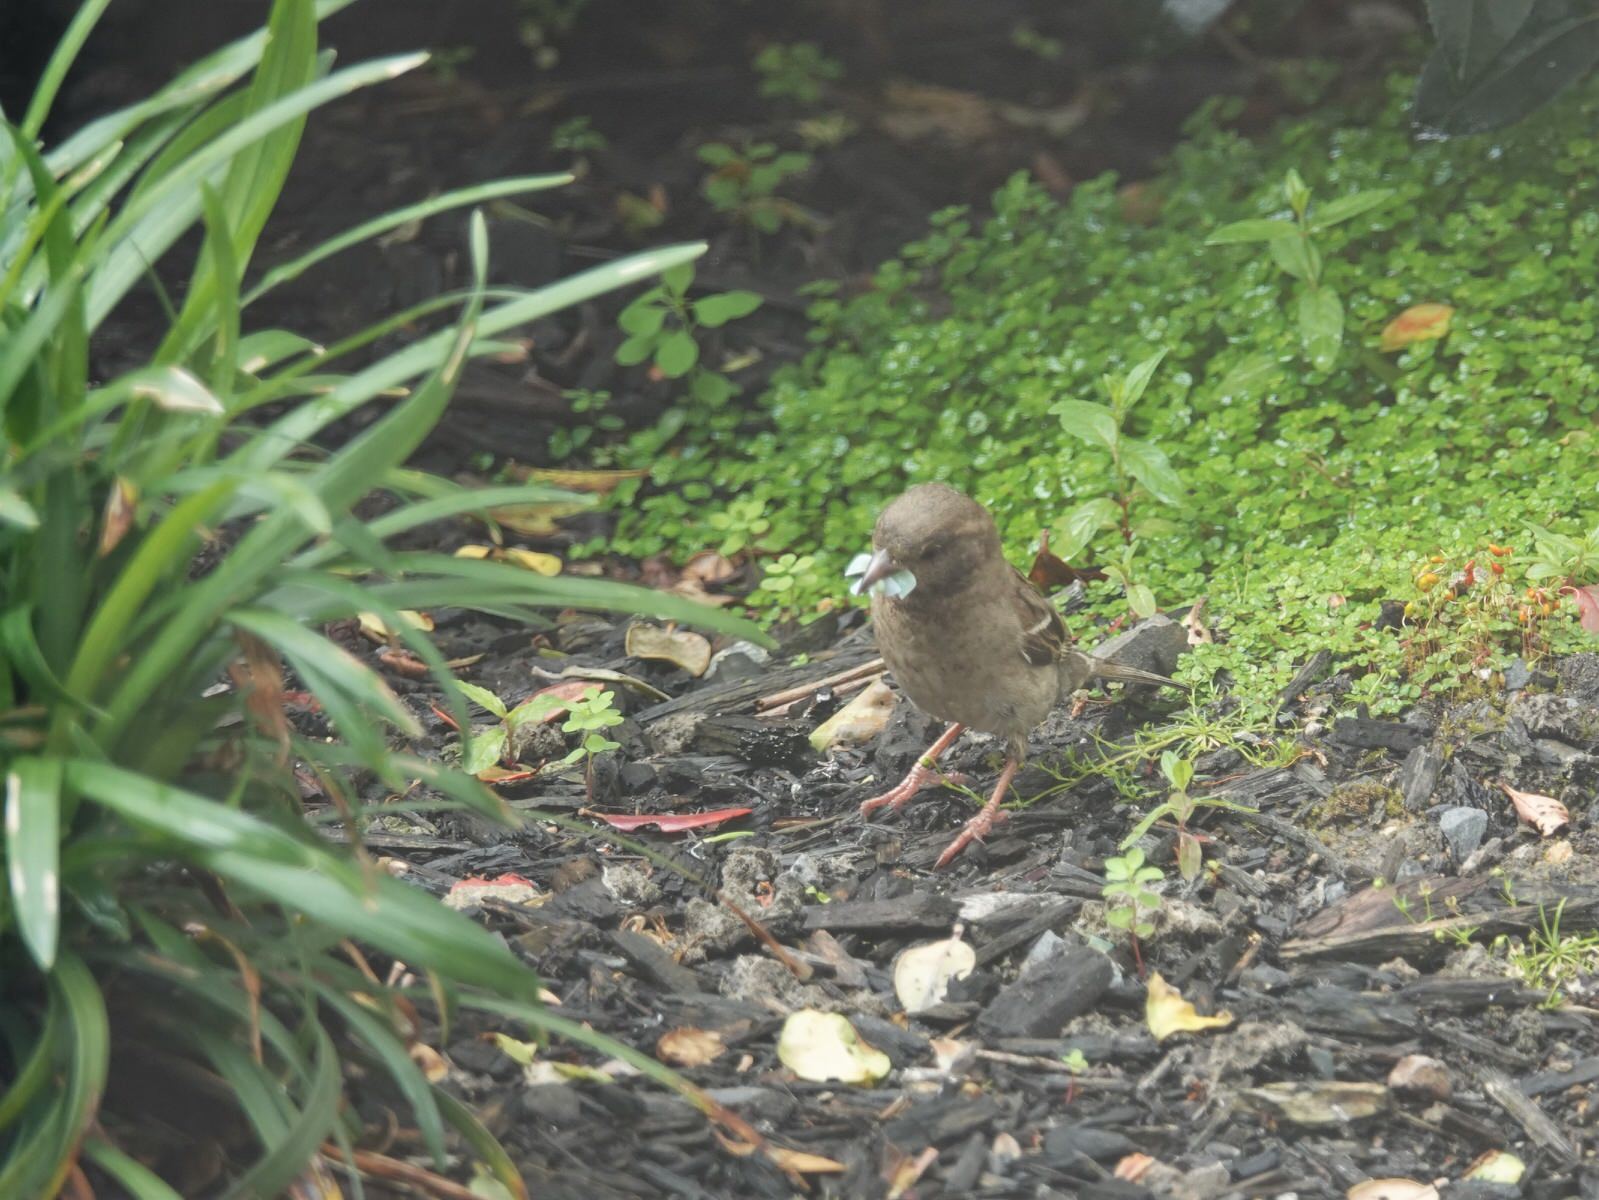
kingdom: Animalia
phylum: Chordata
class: Aves
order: Passeriformes
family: Passeridae
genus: Passer
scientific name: Passer domesticus
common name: House sparrow
